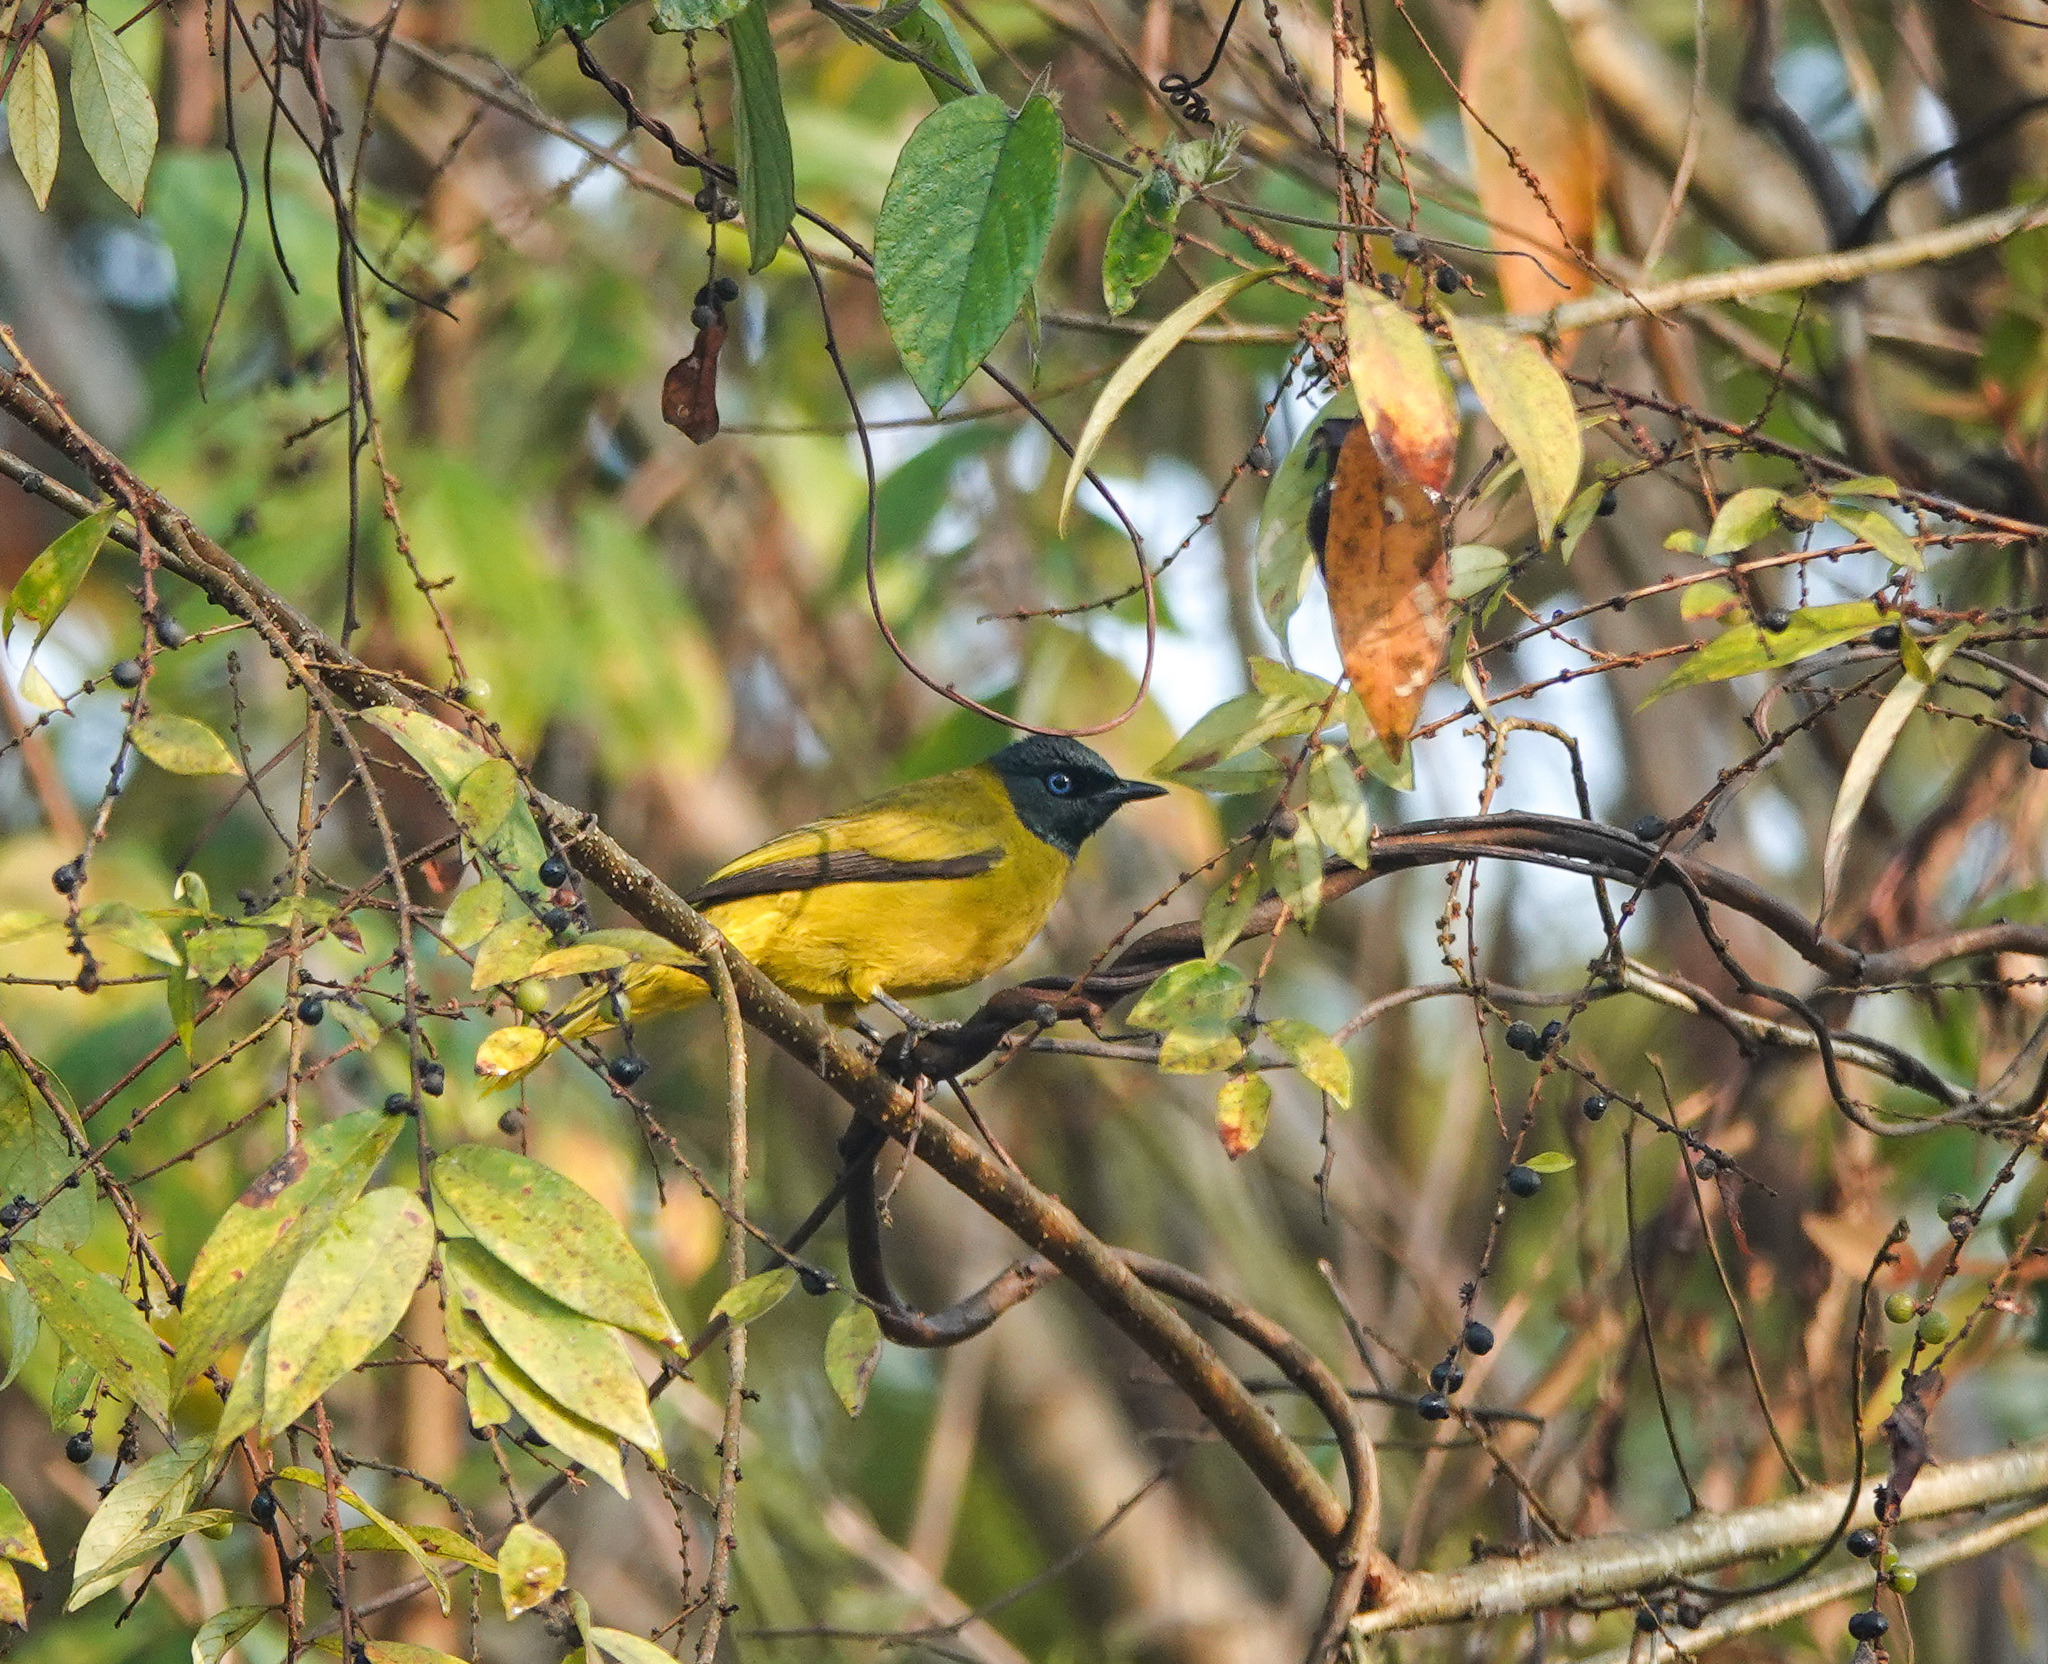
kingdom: Animalia
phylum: Chordata
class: Aves
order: Passeriformes
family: Pycnonotidae
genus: Microtarsus
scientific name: Microtarsus
